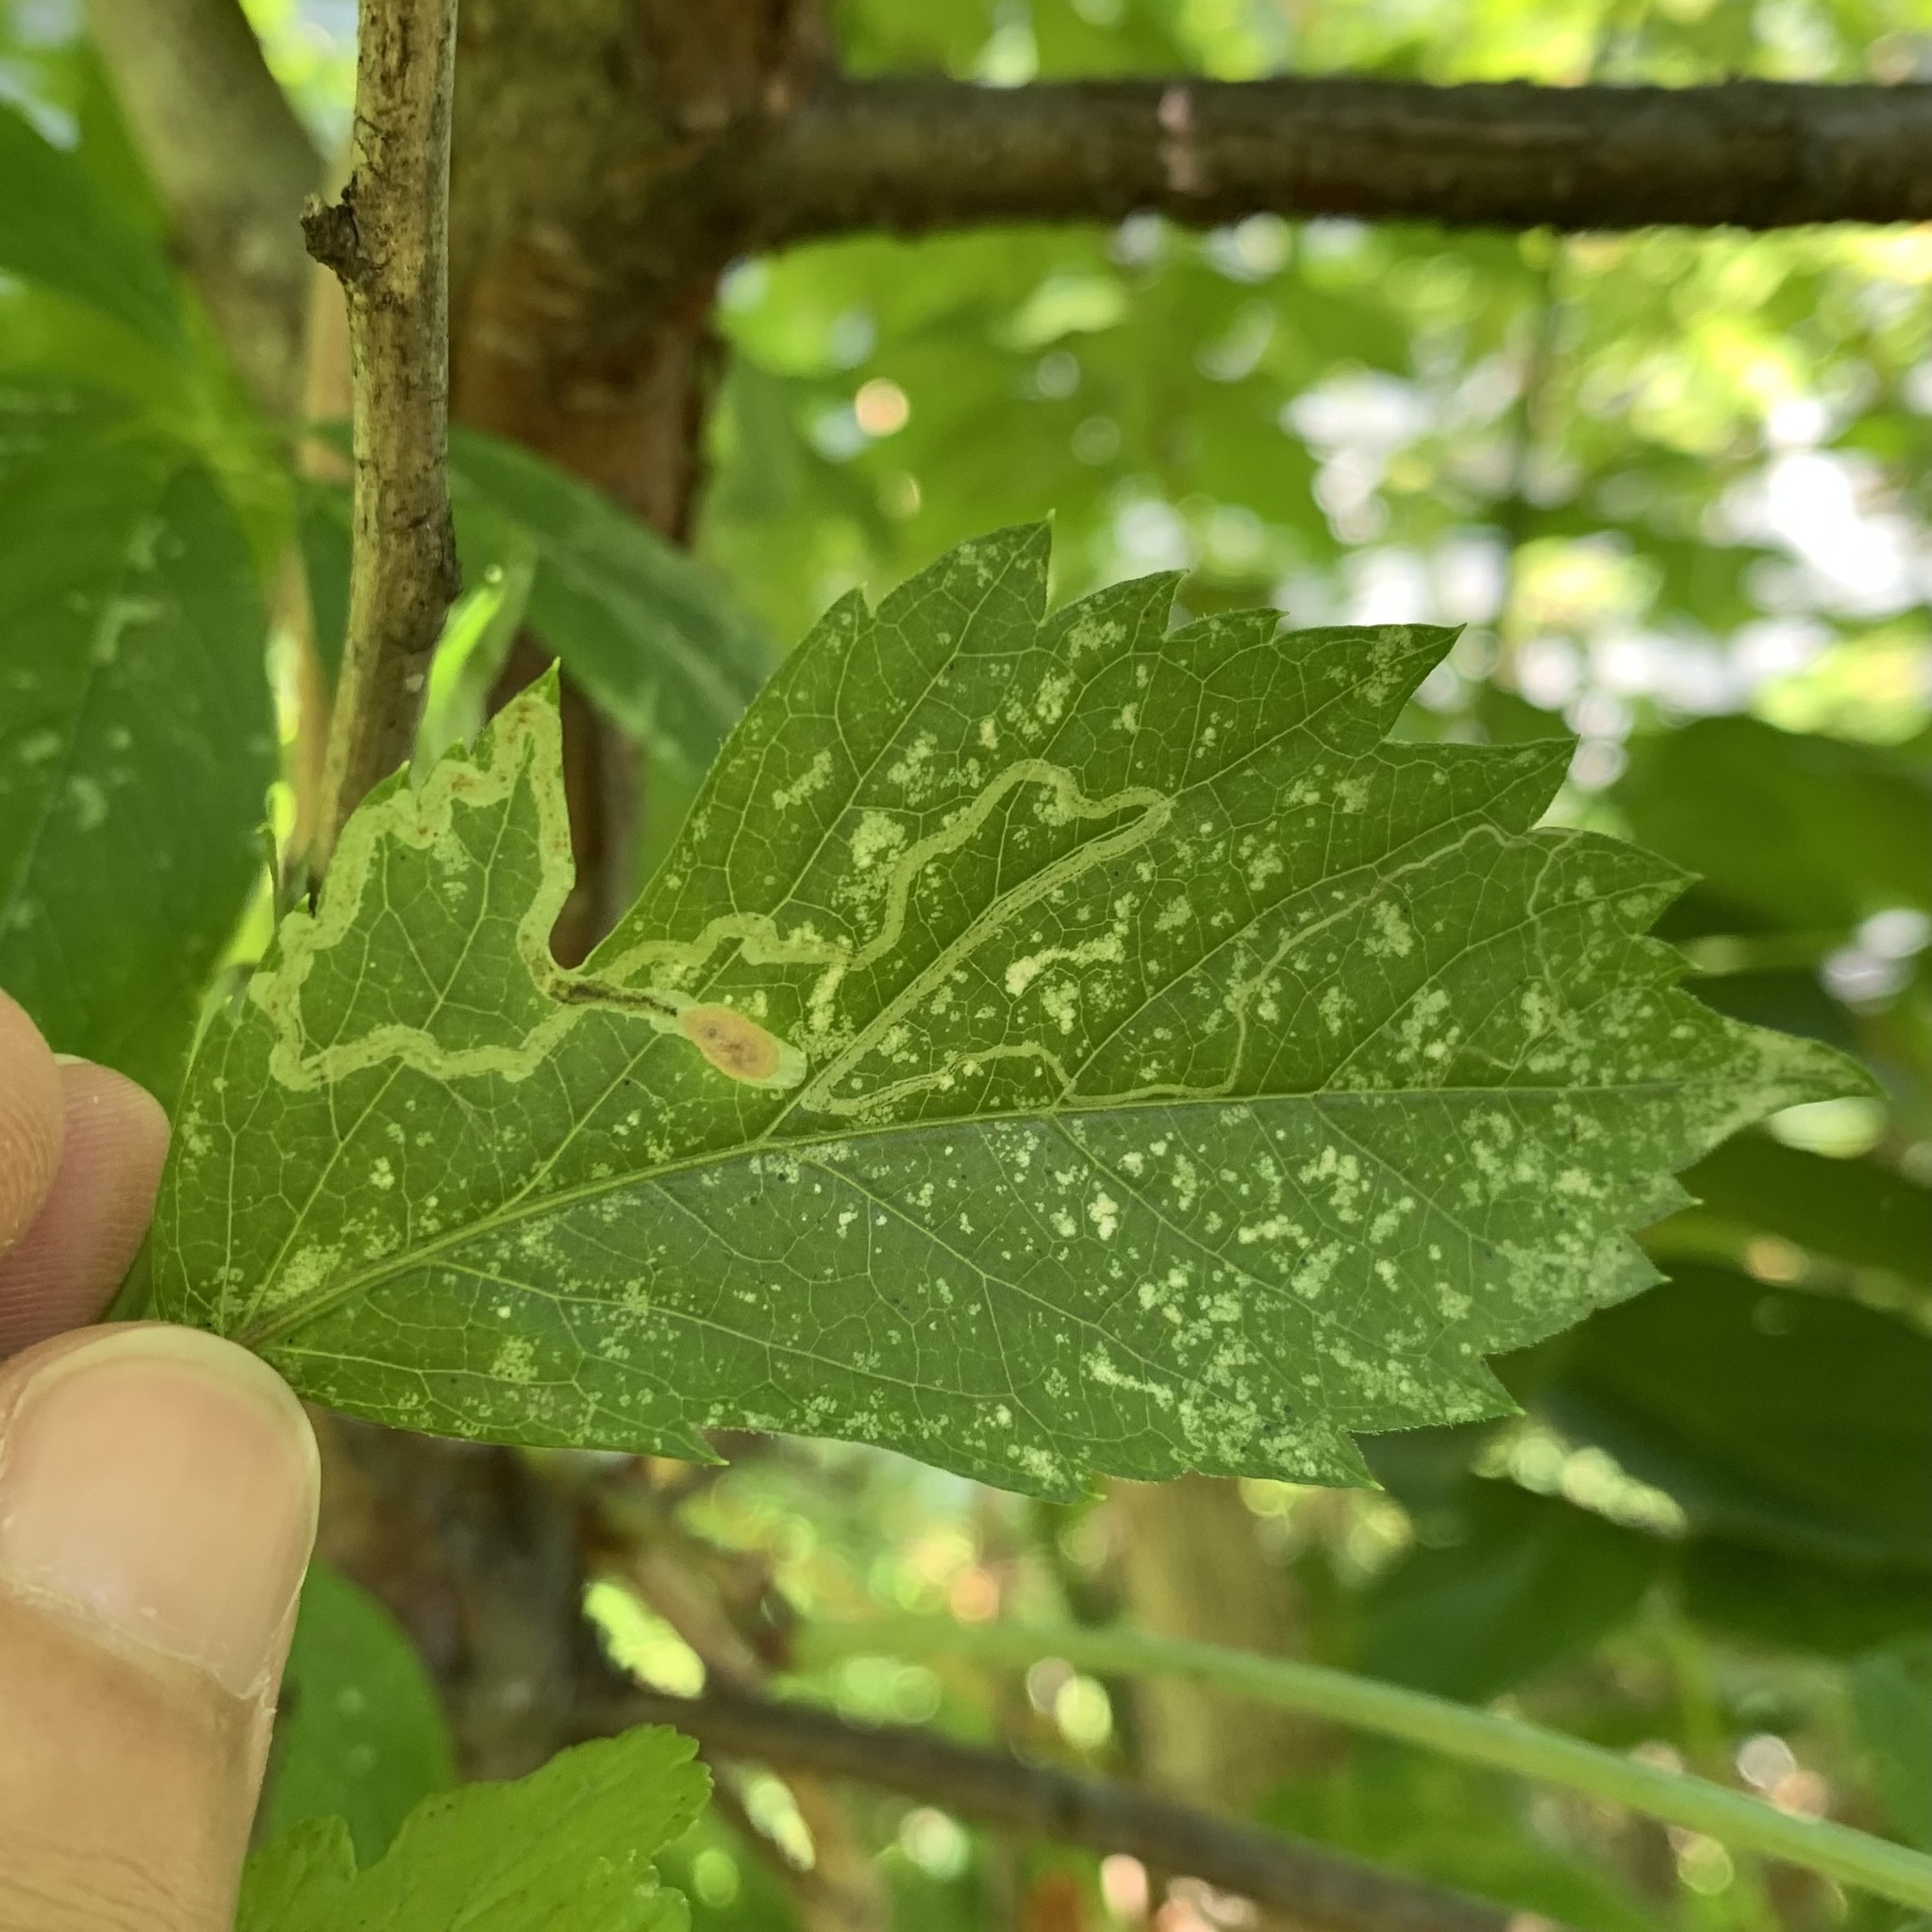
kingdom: Animalia
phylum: Arthropoda
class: Insecta
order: Lepidoptera
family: Gracillariidae
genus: Phyllocnistis
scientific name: Phyllocnistis vitifoliella
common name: Grape leaf-miner moth
